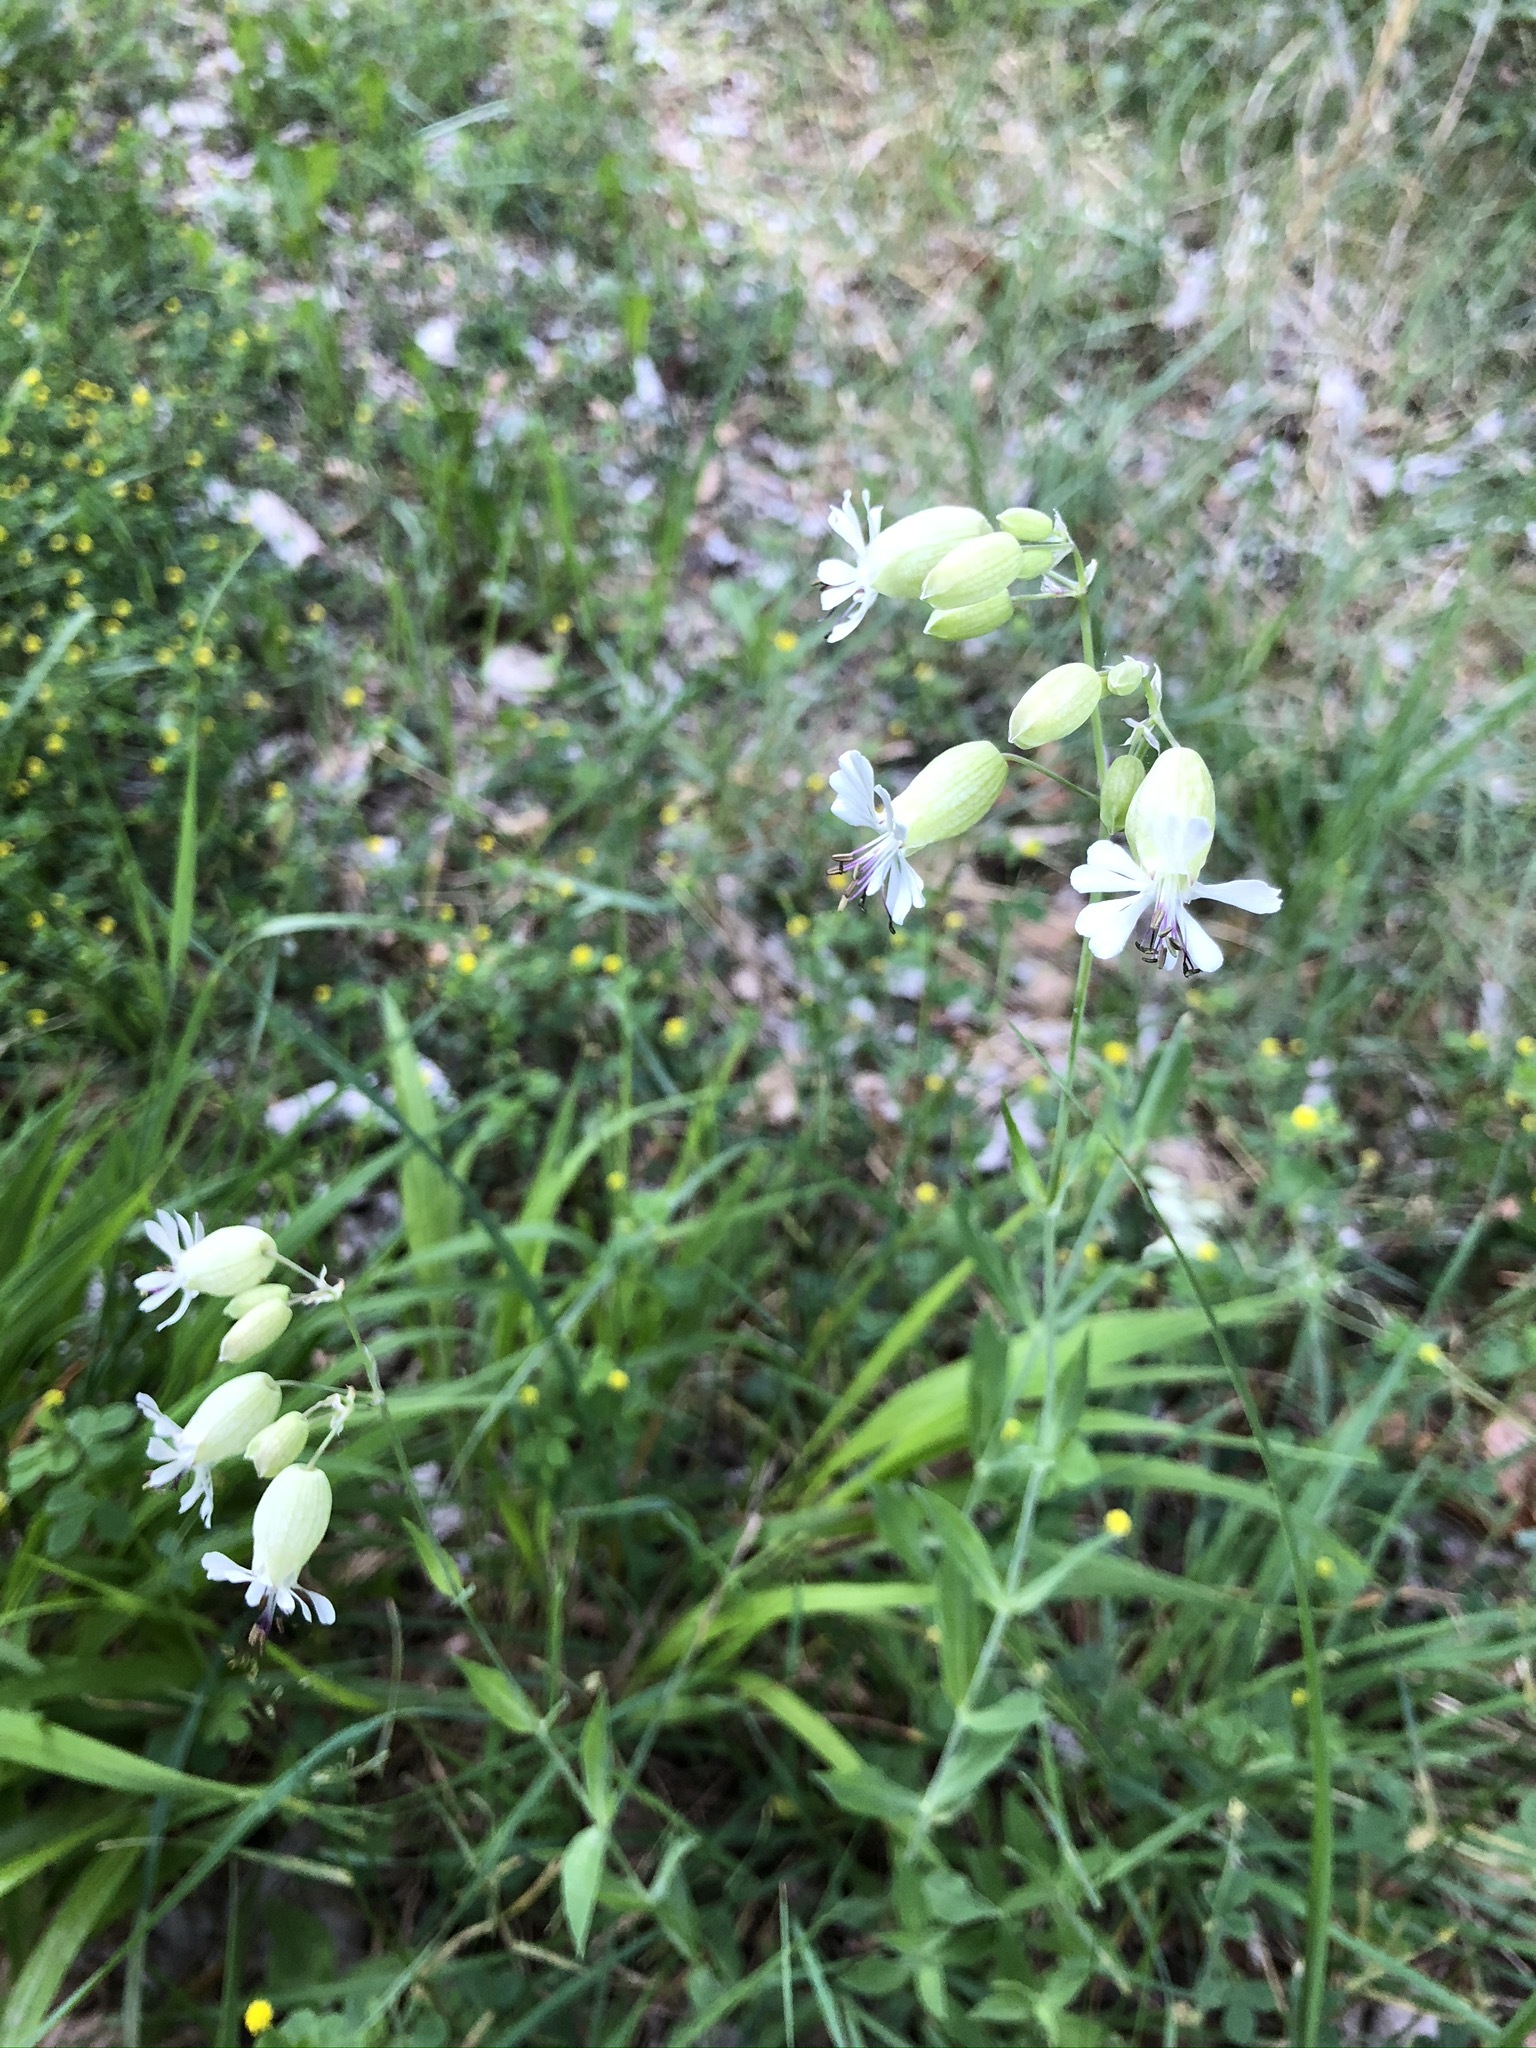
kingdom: Plantae
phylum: Tracheophyta
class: Magnoliopsida
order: Caryophyllales
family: Caryophyllaceae
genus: Silene
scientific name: Silene vulgaris
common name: Bladder campion
